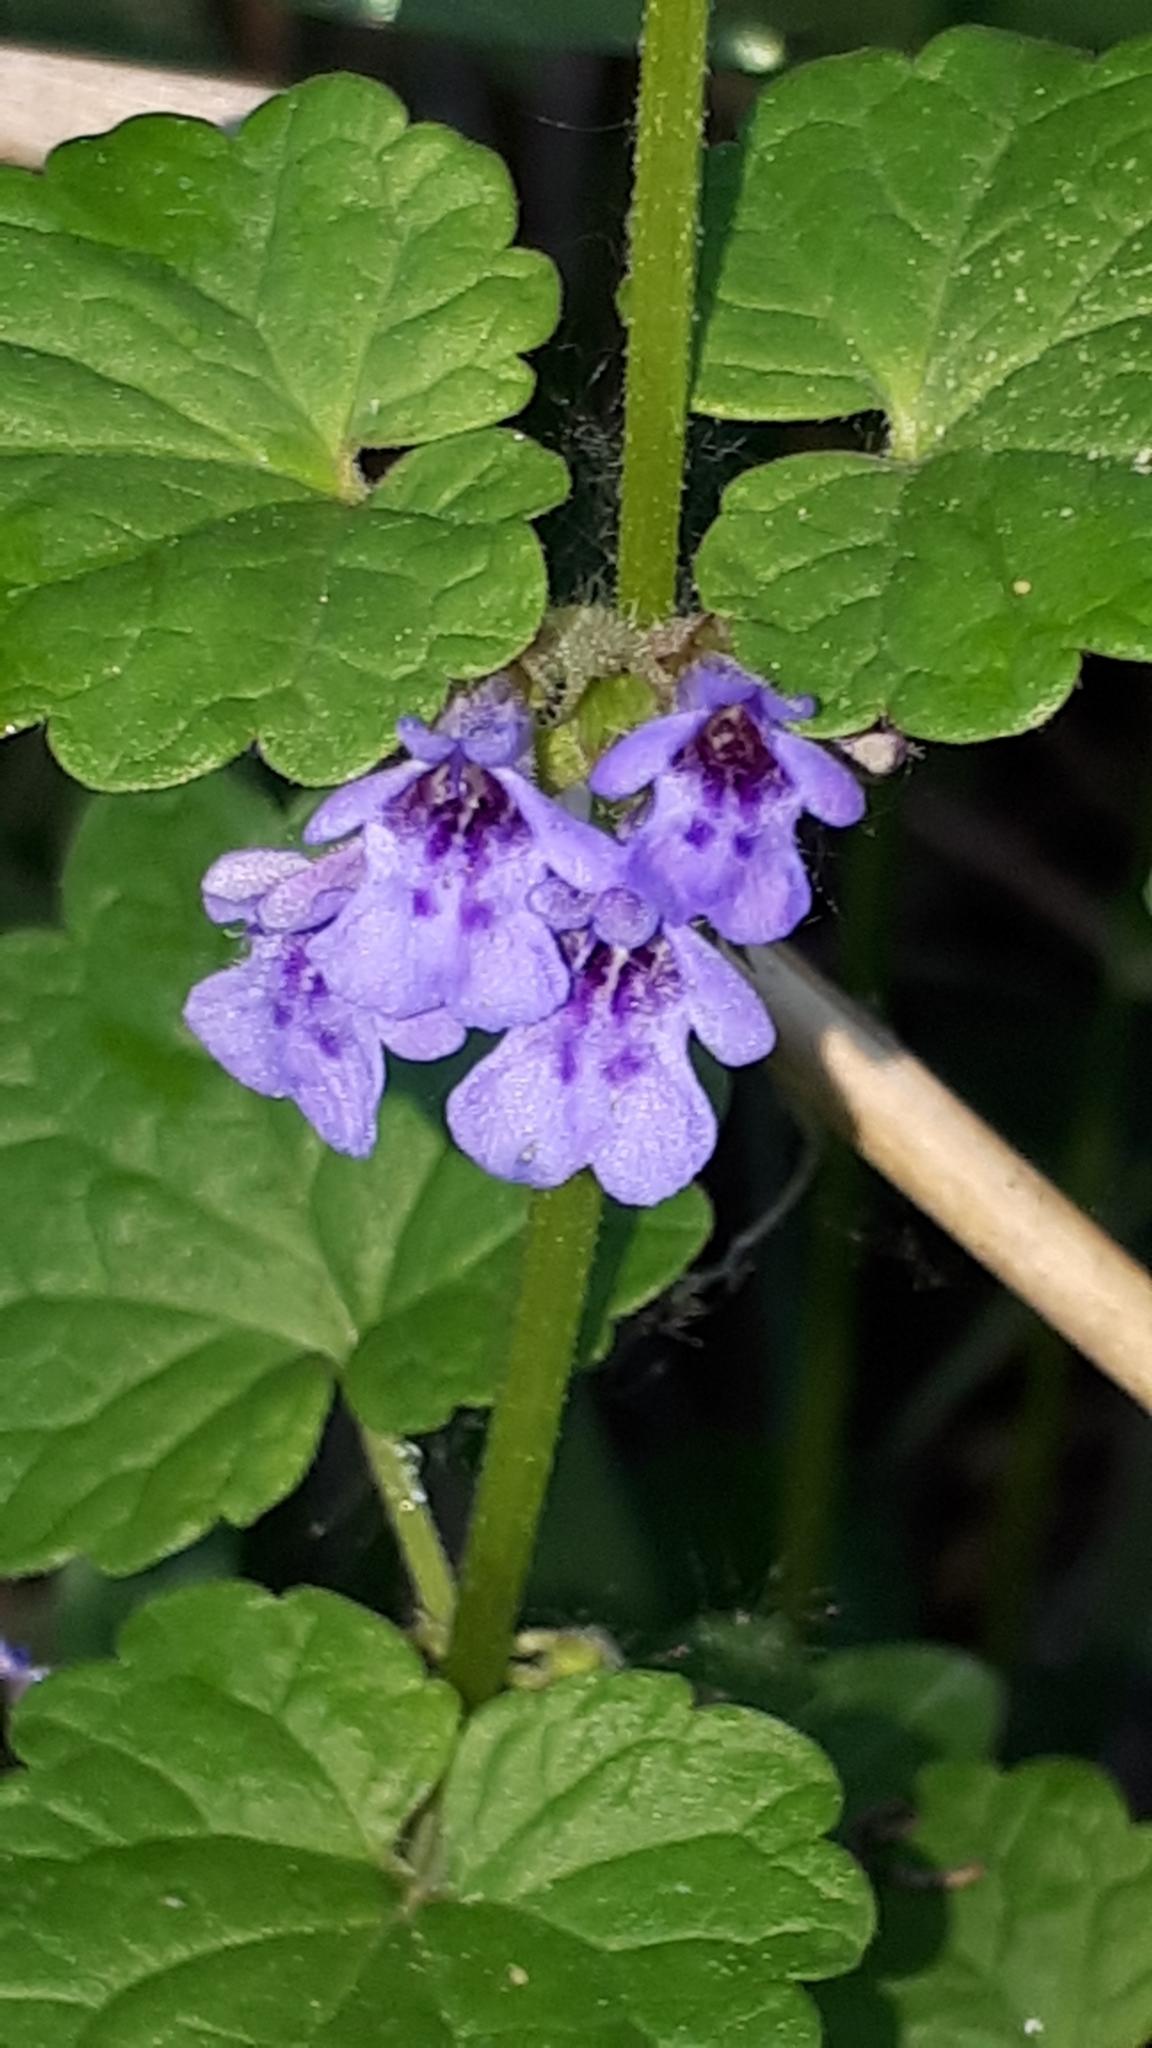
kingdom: Plantae
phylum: Tracheophyta
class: Magnoliopsida
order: Lamiales
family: Lamiaceae
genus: Glechoma
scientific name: Glechoma hederacea
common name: Ground ivy
